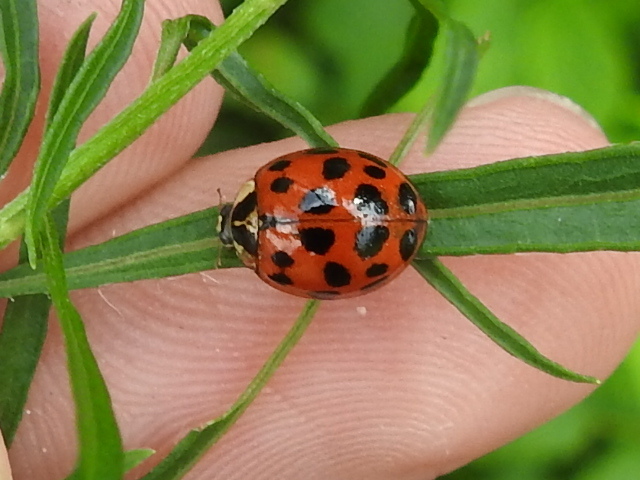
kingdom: Animalia
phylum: Arthropoda
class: Insecta
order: Coleoptera
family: Coccinellidae
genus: Harmonia
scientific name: Harmonia axyridis
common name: Harlequin ladybird
